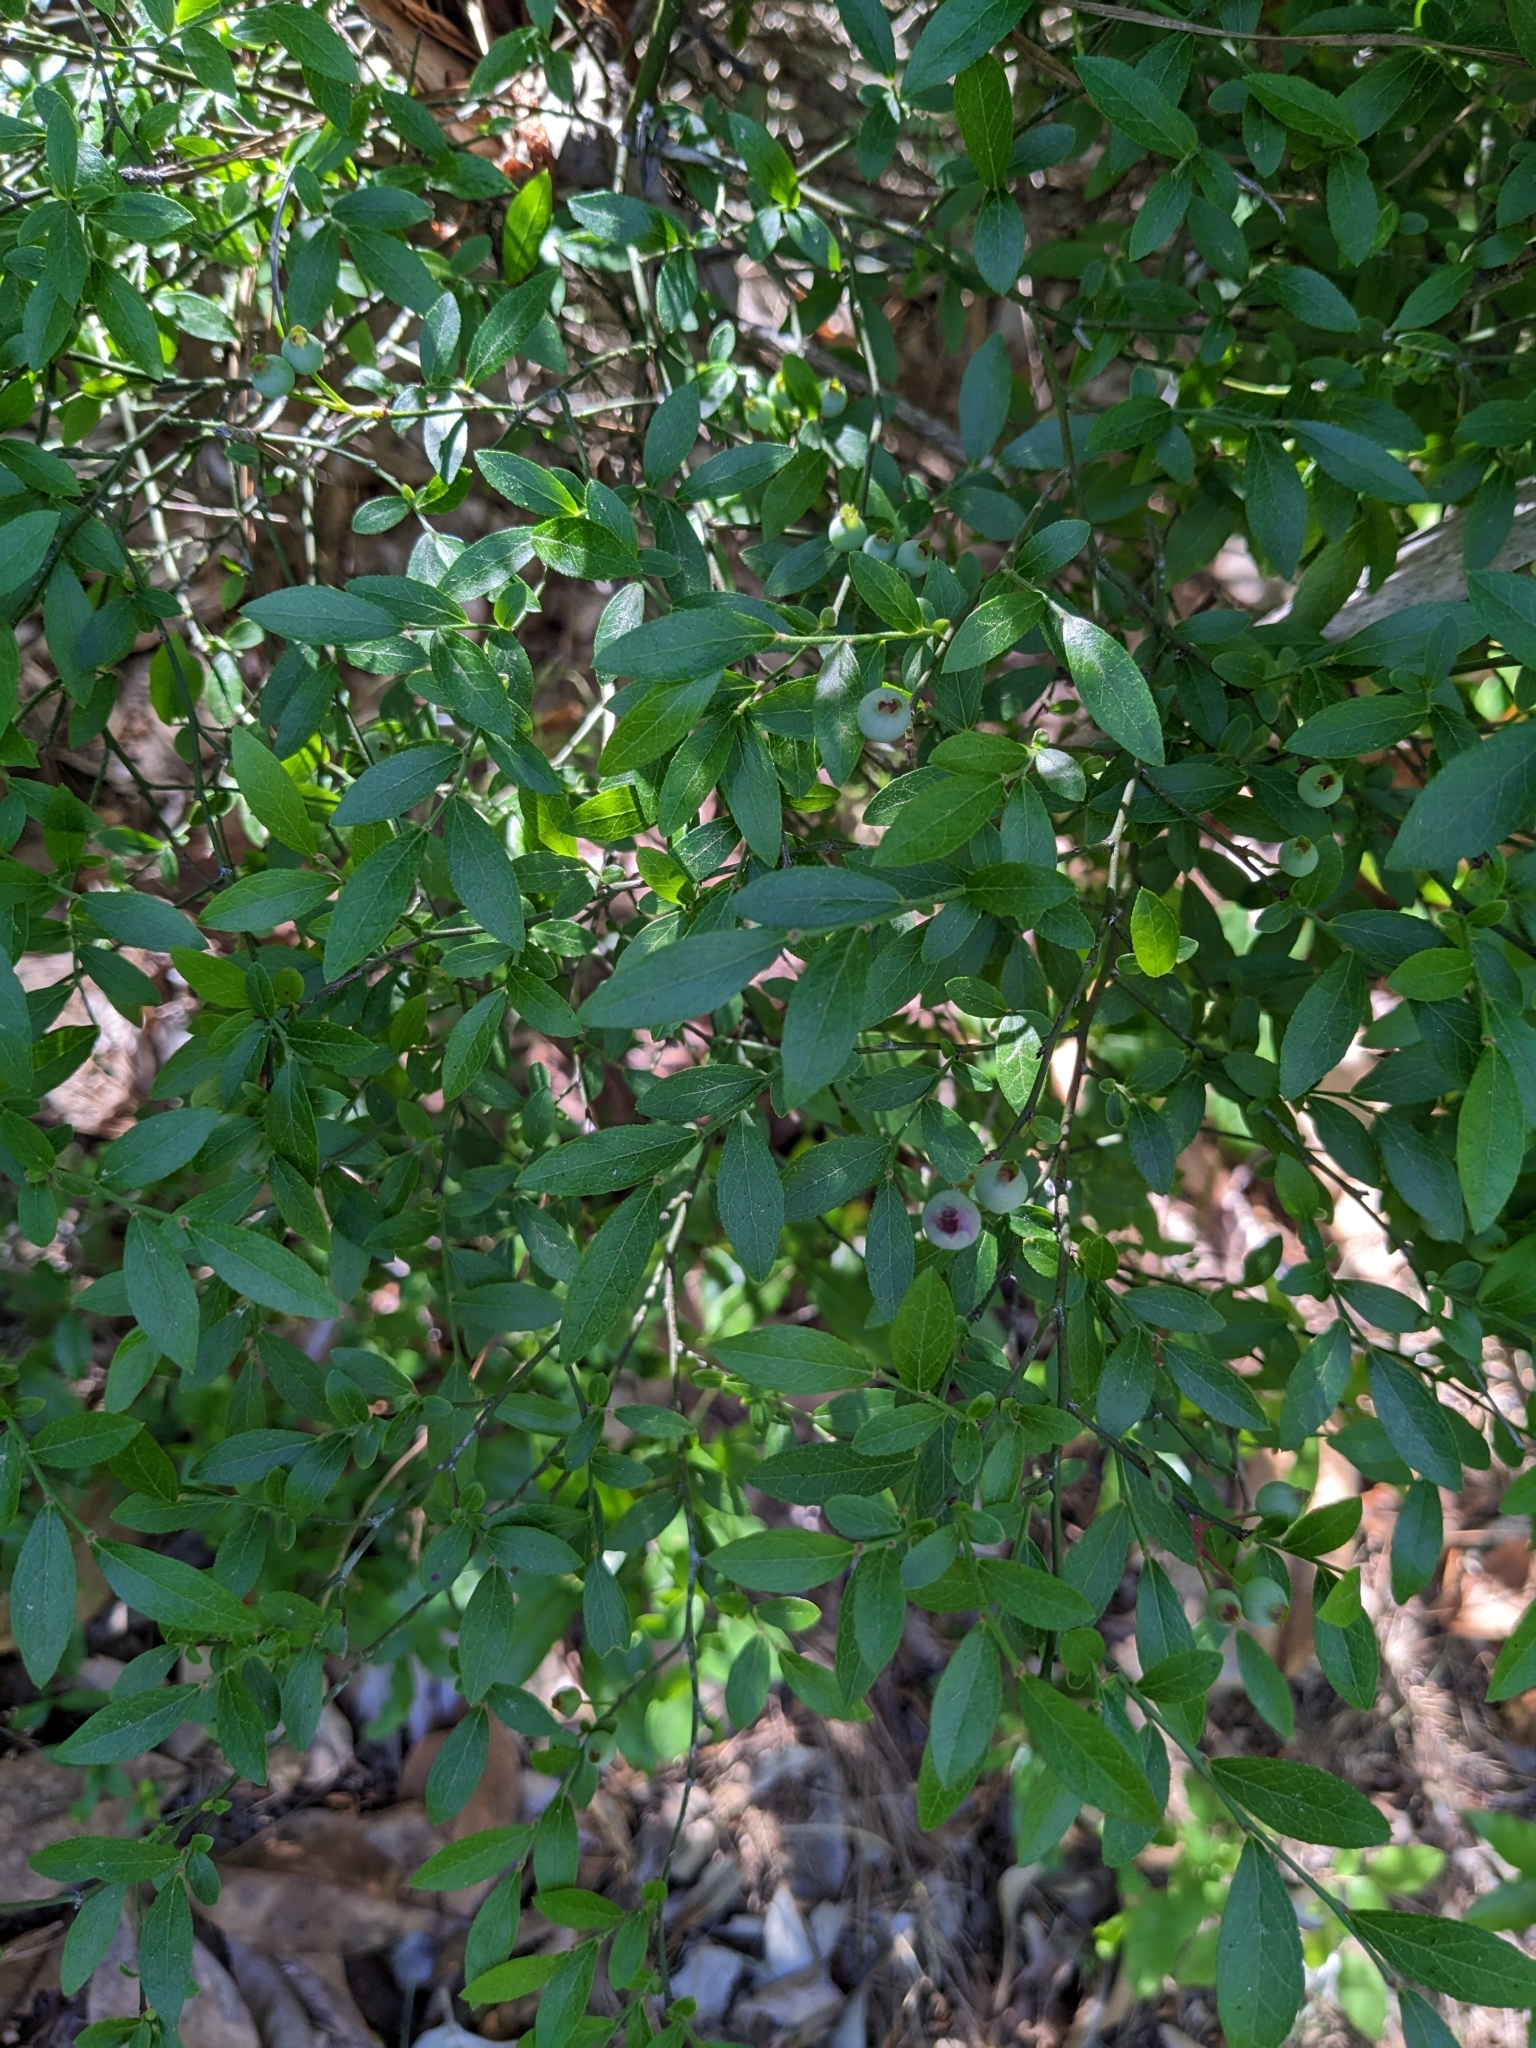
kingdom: Plantae
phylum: Tracheophyta
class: Magnoliopsida
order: Ericales
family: Ericaceae
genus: Vaccinium
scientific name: Vaccinium corymbosum
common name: Blueberry
